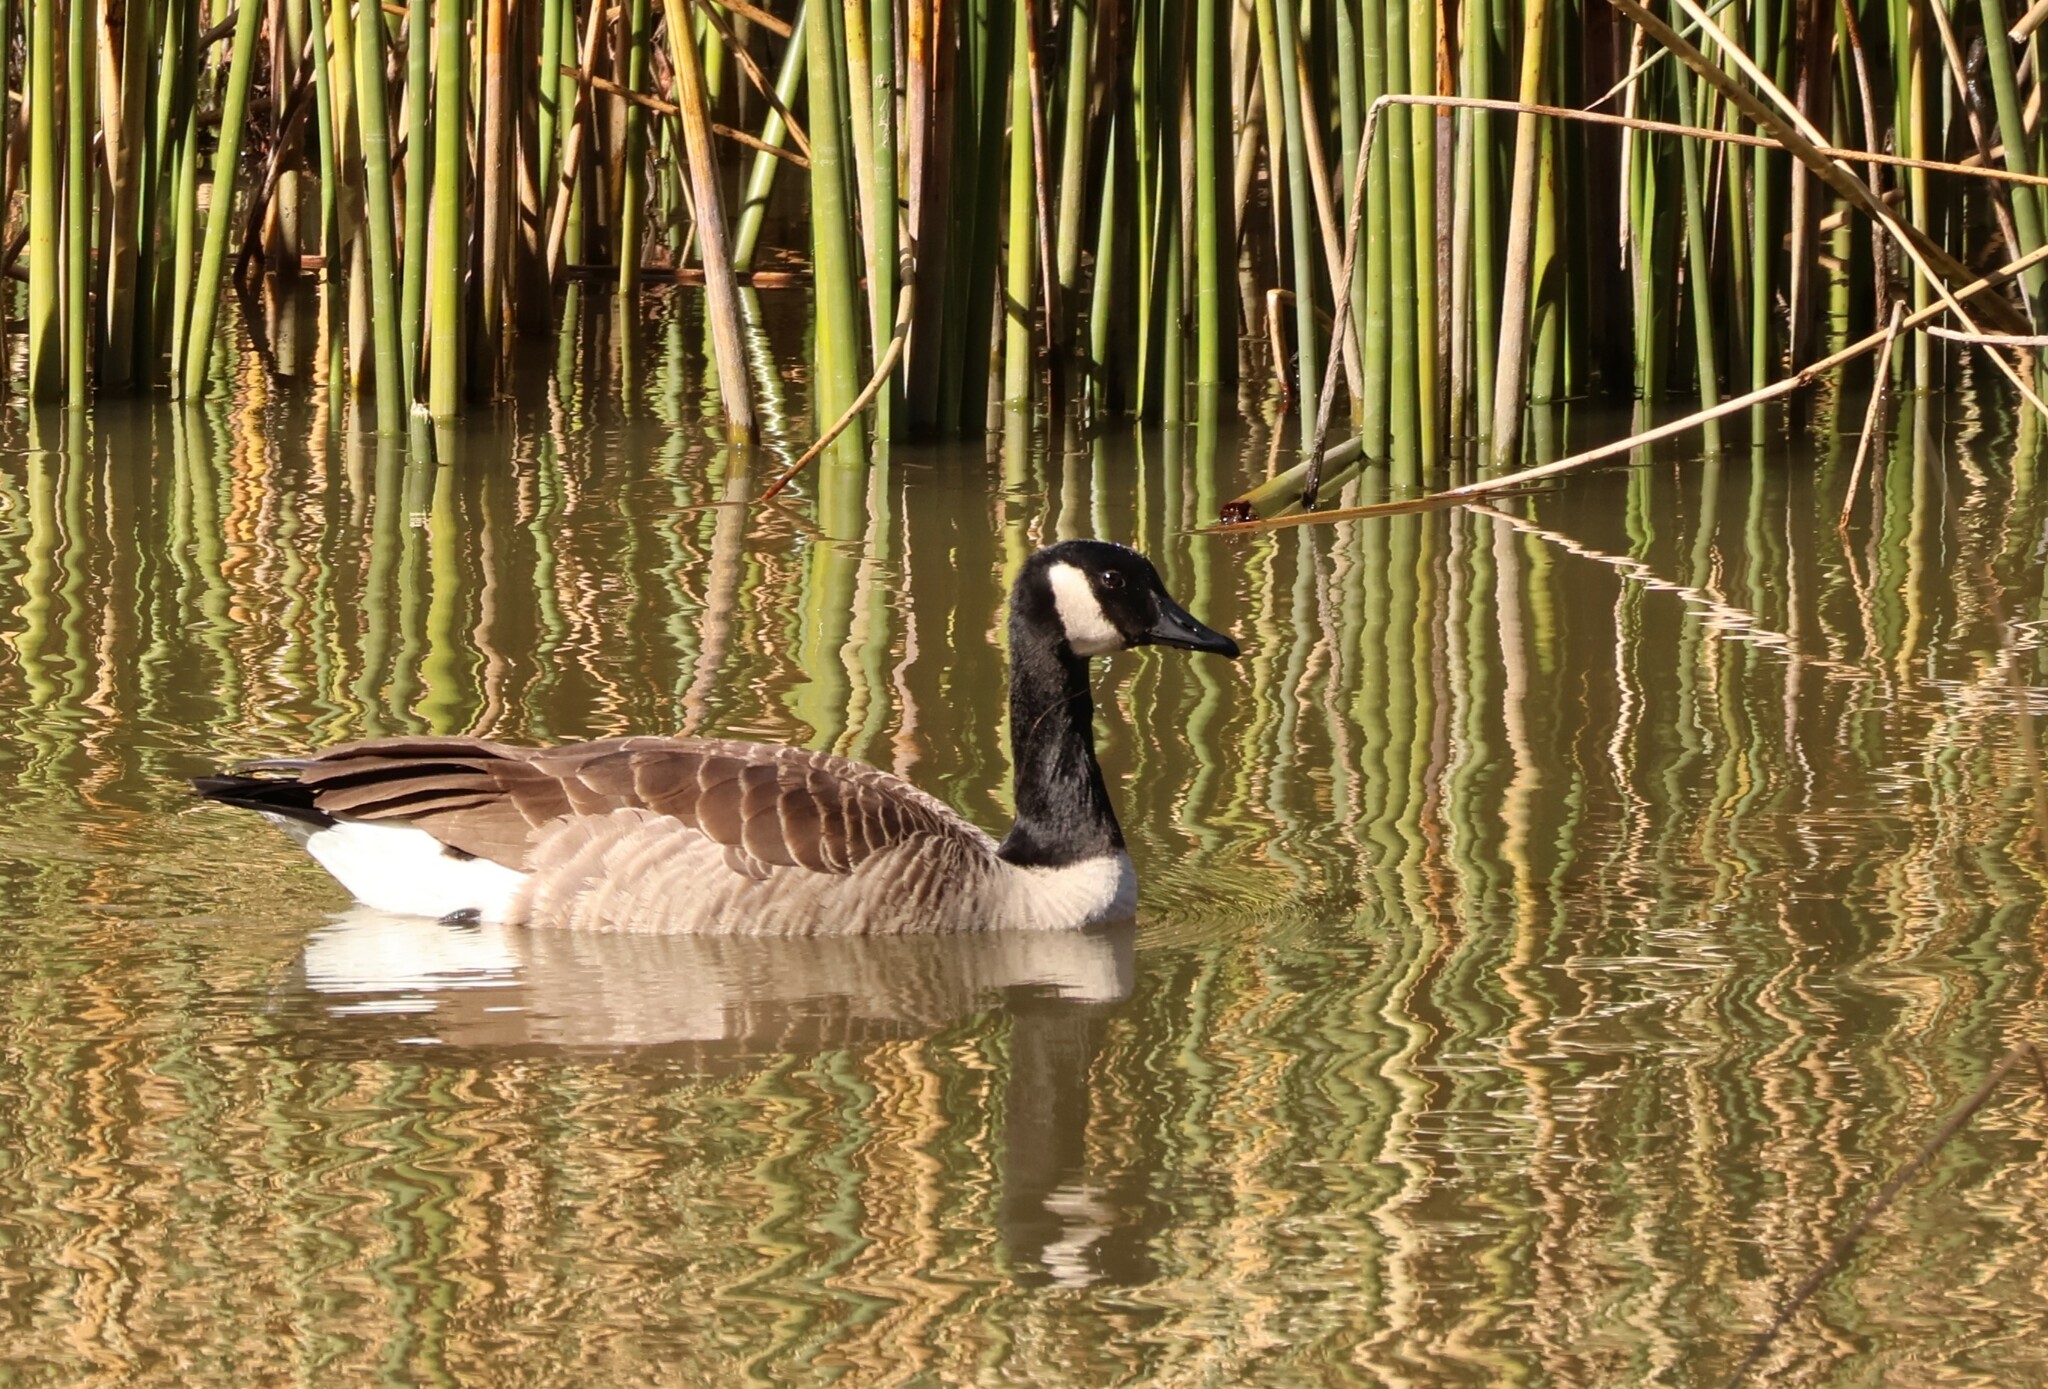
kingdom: Animalia
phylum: Chordata
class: Aves
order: Anseriformes
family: Anatidae
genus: Branta
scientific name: Branta canadensis
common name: Canada goose
